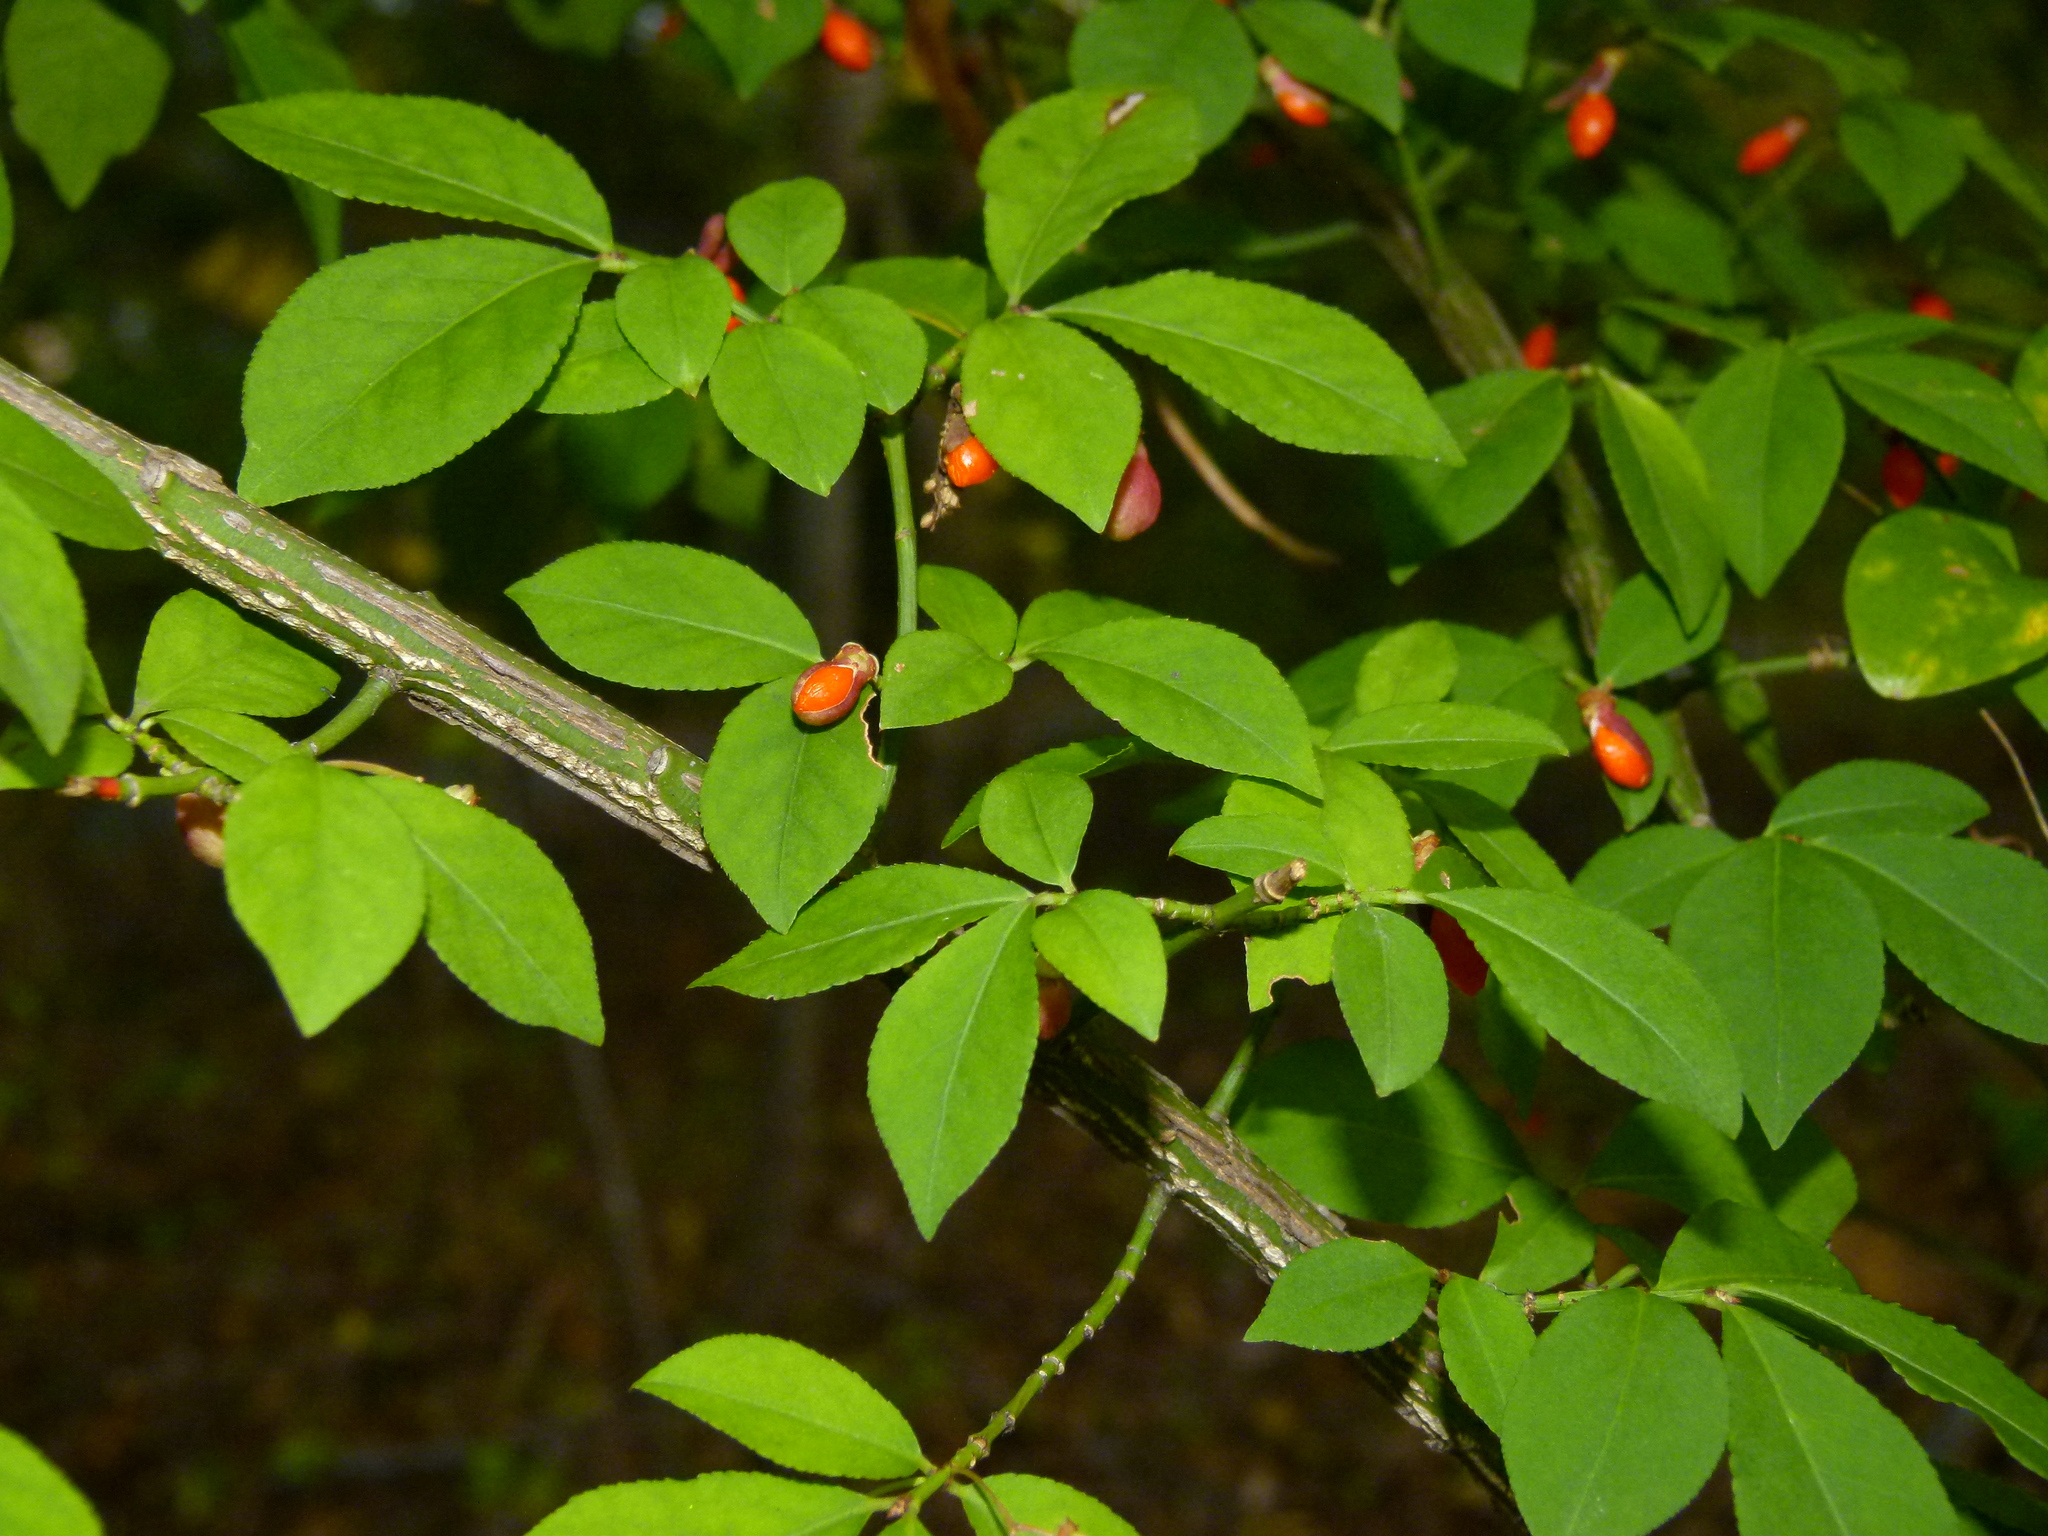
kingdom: Plantae
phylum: Tracheophyta
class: Magnoliopsida
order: Celastrales
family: Celastraceae
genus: Euonymus
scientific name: Euonymus alatus
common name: Winged euonymus
